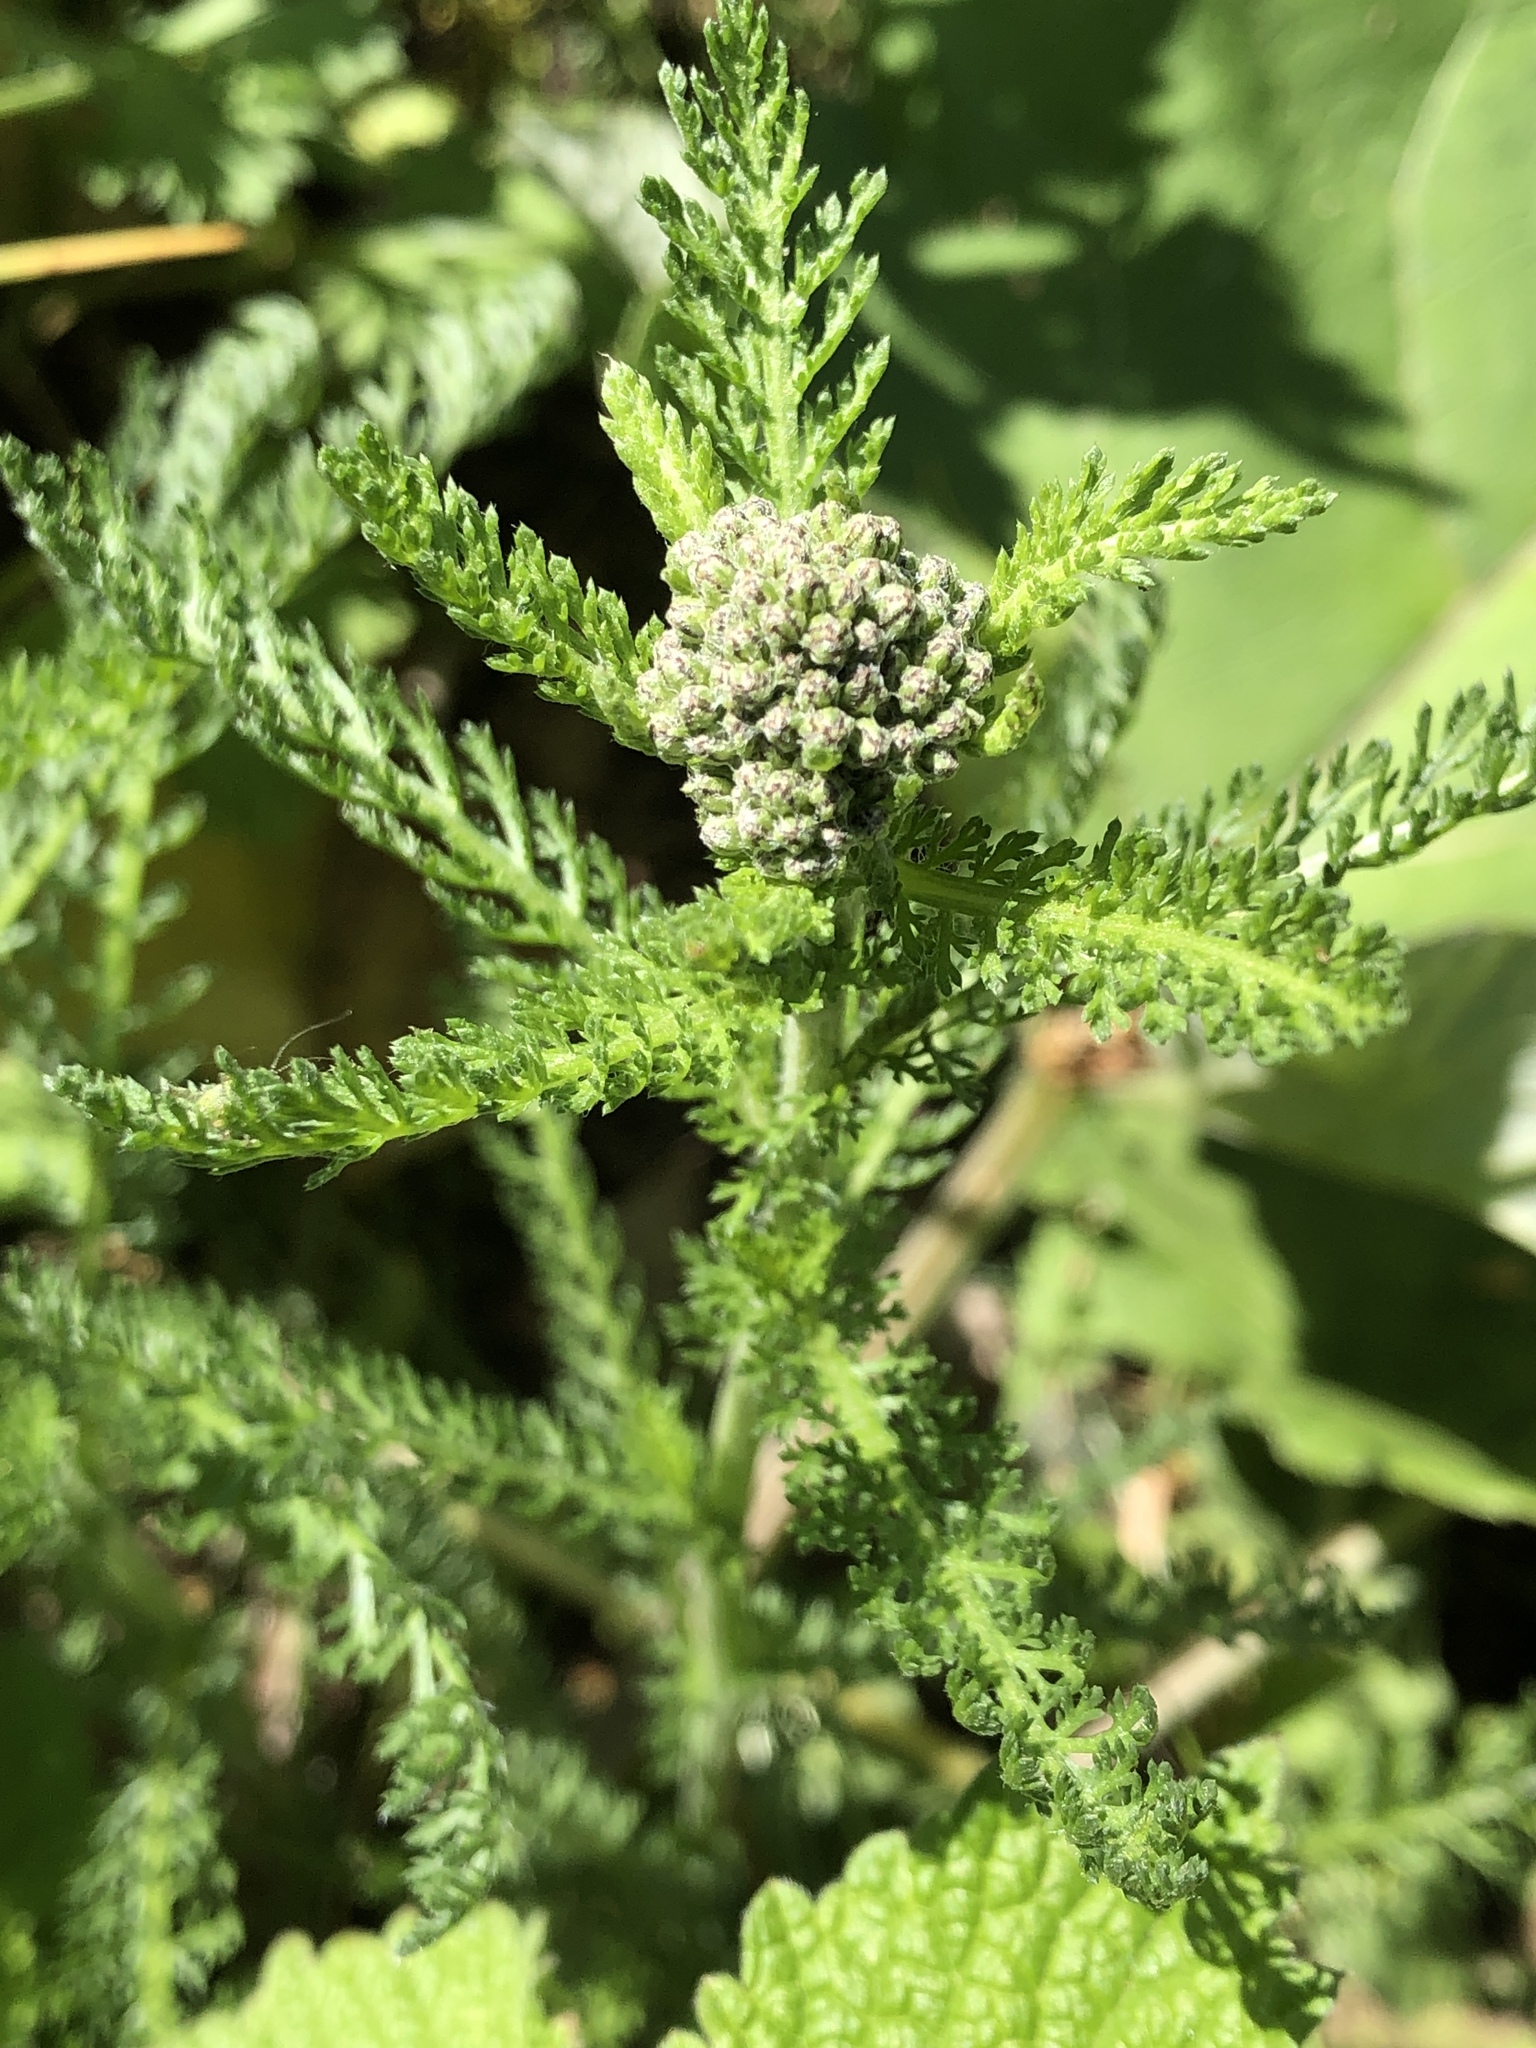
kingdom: Plantae
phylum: Tracheophyta
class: Magnoliopsida
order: Asterales
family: Asteraceae
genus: Achillea
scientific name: Achillea millefolium
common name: Yarrow
